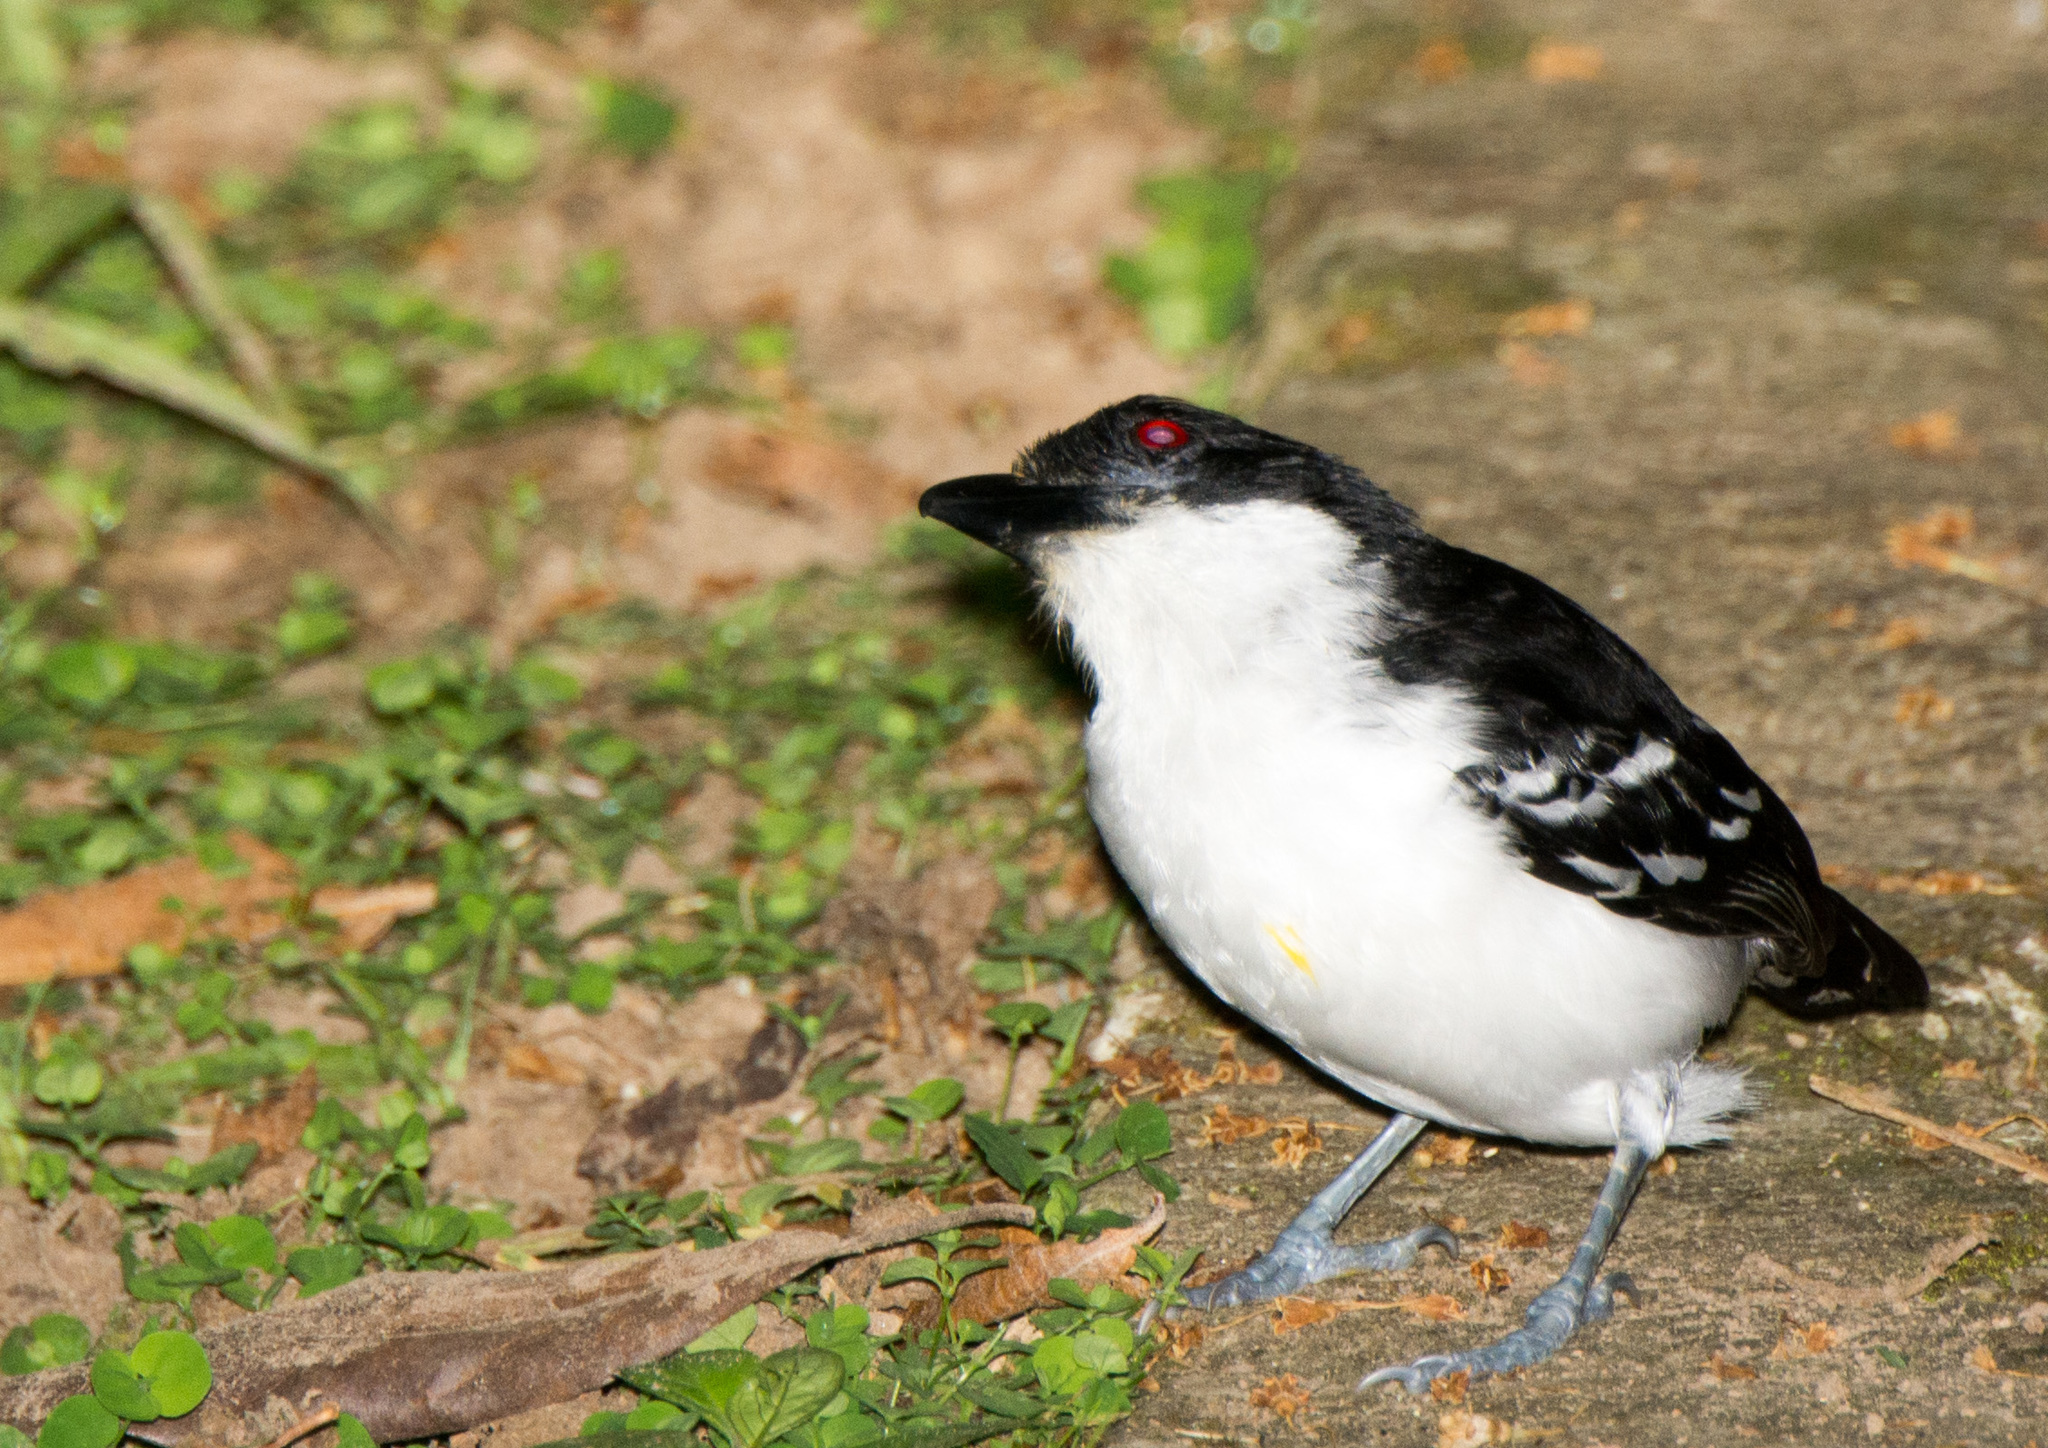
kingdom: Animalia
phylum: Chordata
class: Aves
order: Passeriformes
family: Thamnophilidae
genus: Taraba
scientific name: Taraba major
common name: Great antshrike
